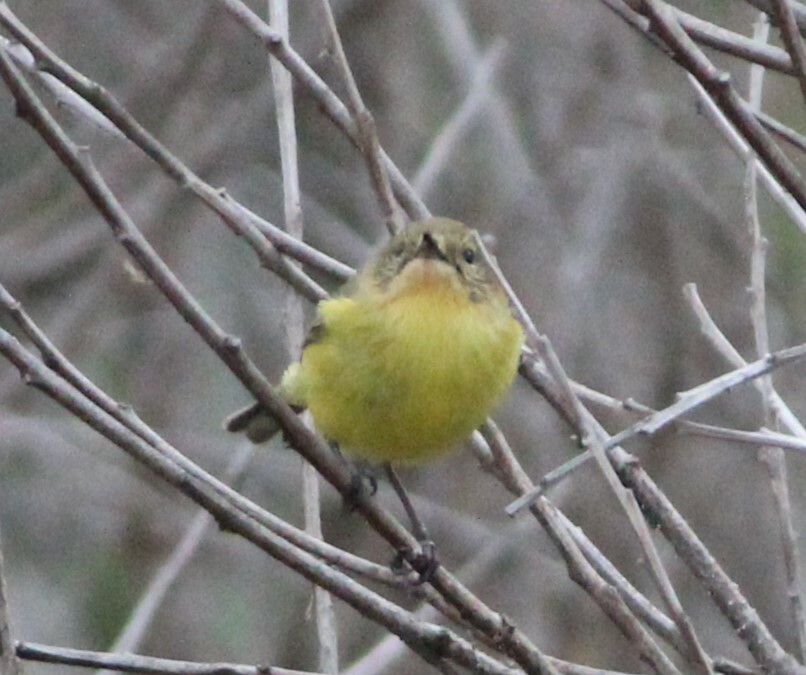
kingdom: Animalia
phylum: Chordata
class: Aves
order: Passeriformes
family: Acanthizidae
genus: Acanthiza
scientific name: Acanthiza nana
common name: Yellow thornbill
